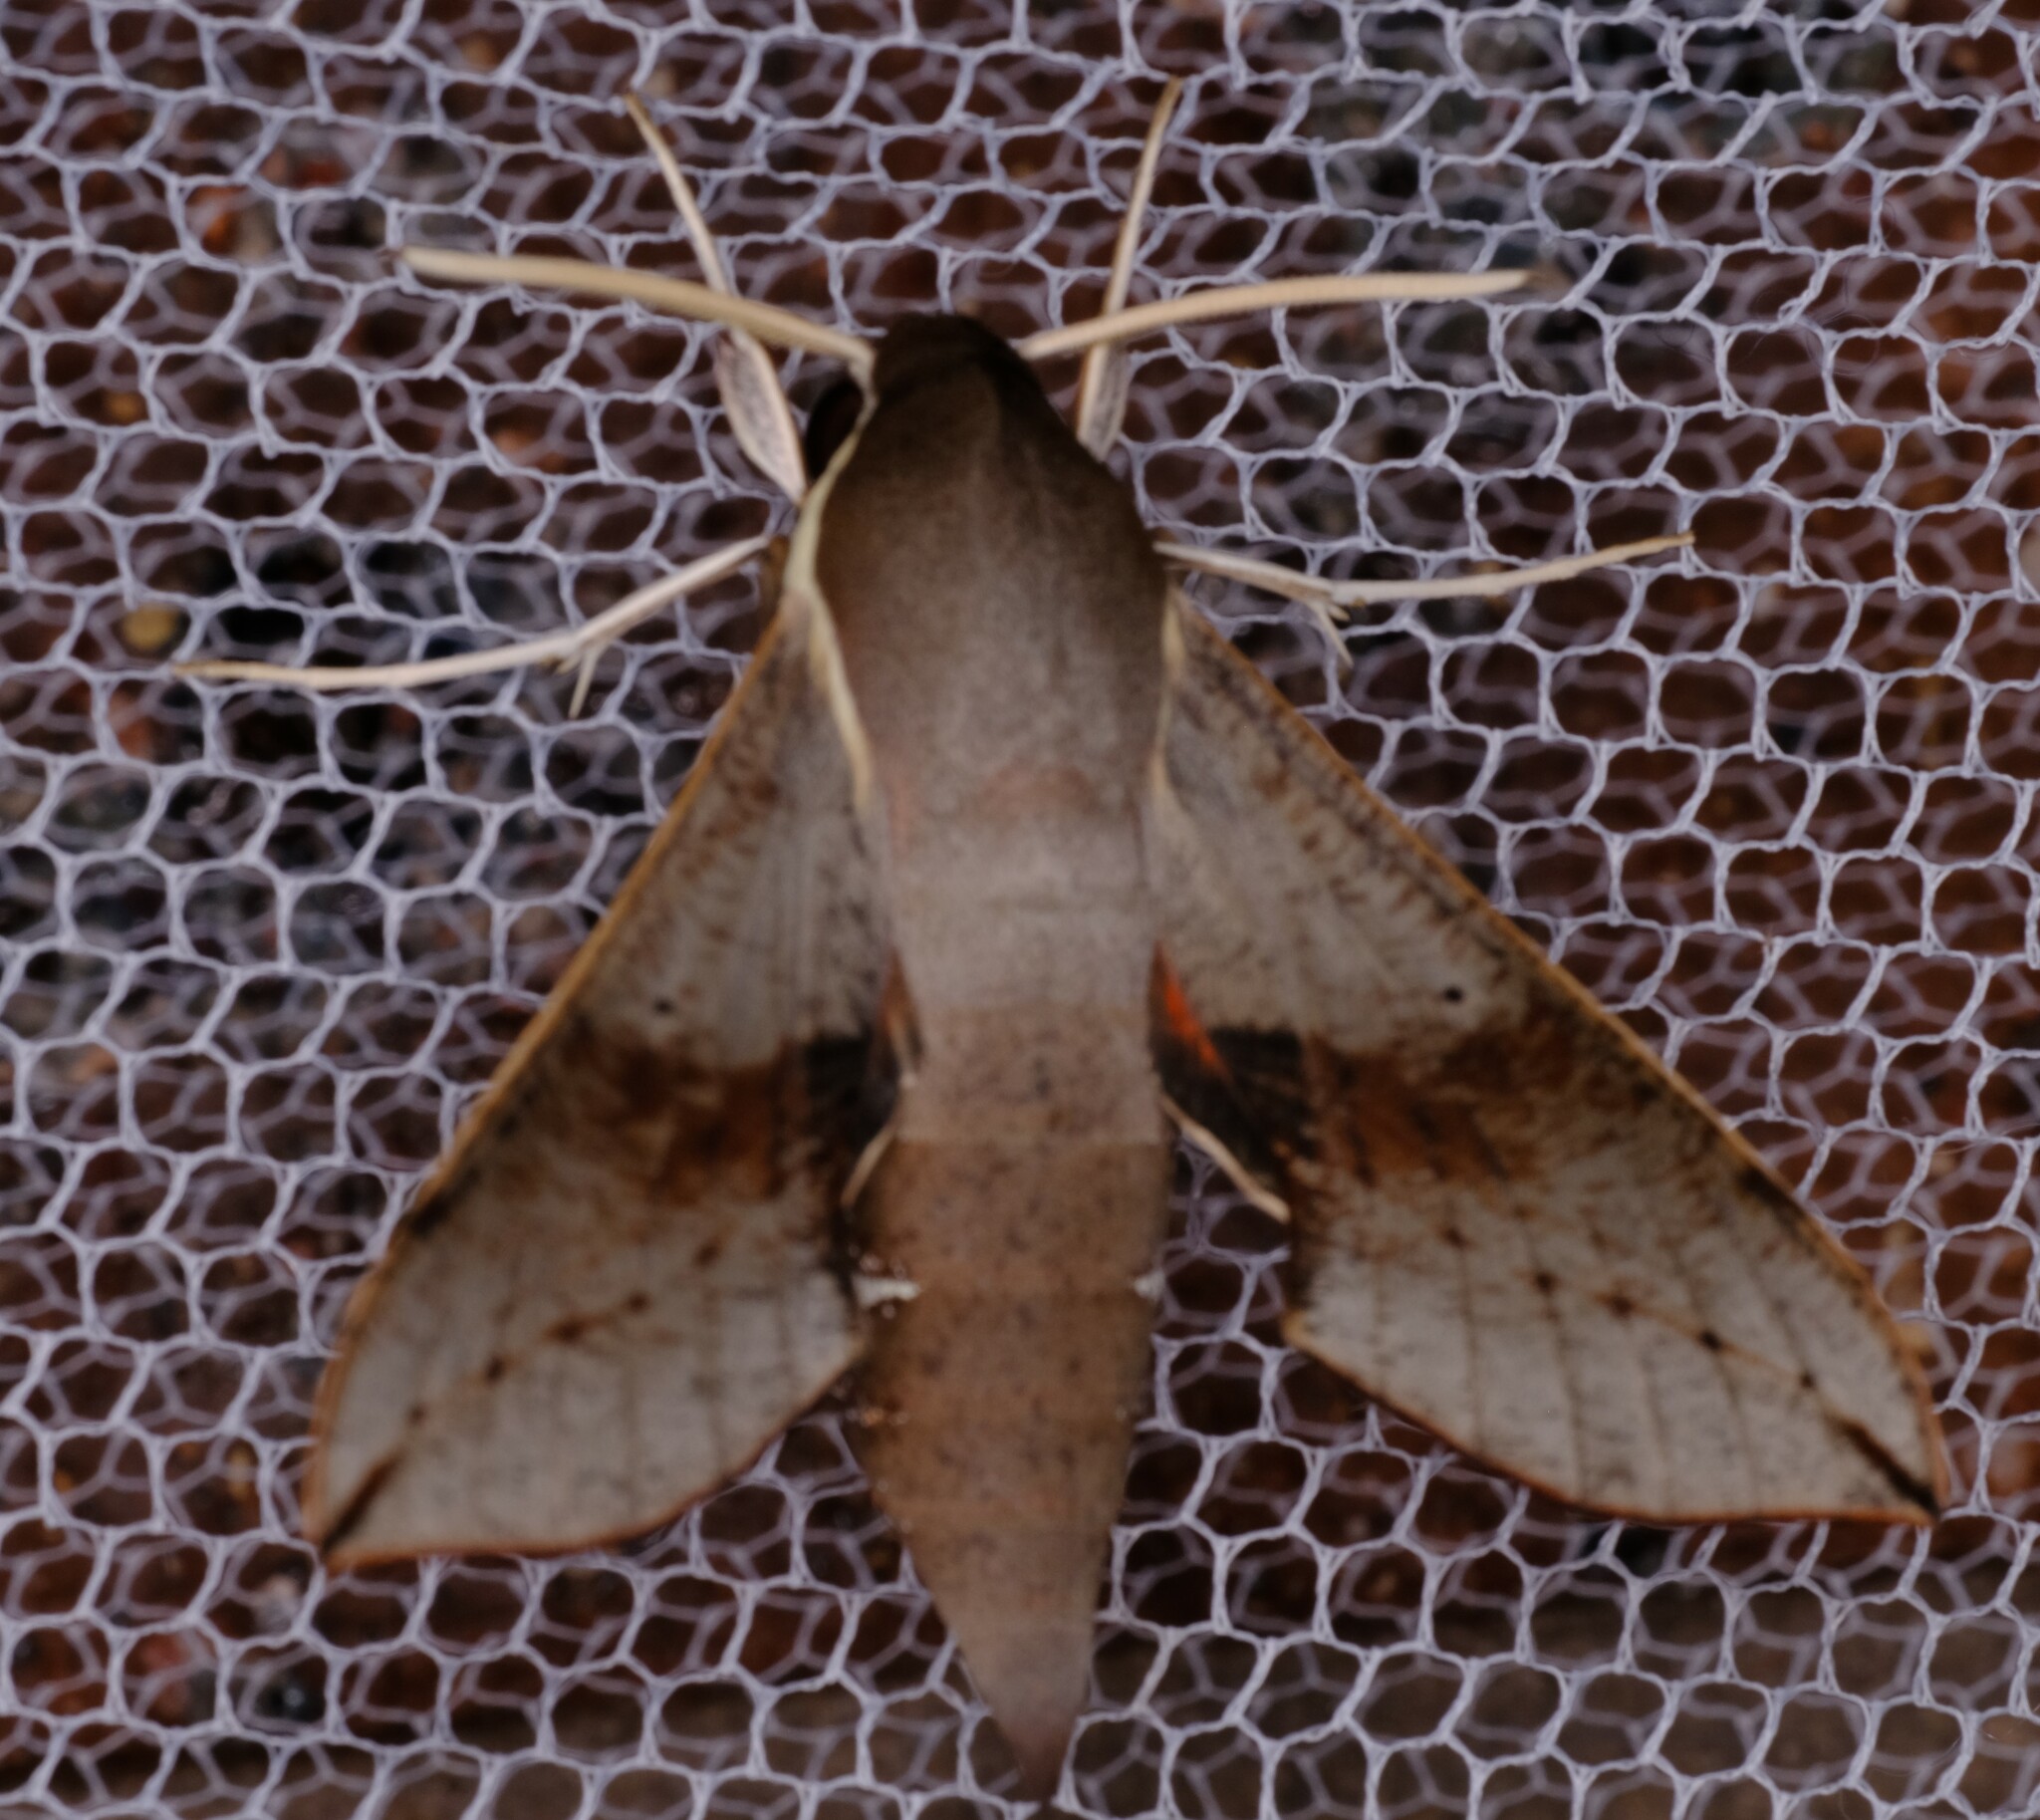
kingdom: Animalia
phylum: Arthropoda
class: Insecta
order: Lepidoptera
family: Sphingidae
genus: Hippotion
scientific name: Hippotion scrofa
